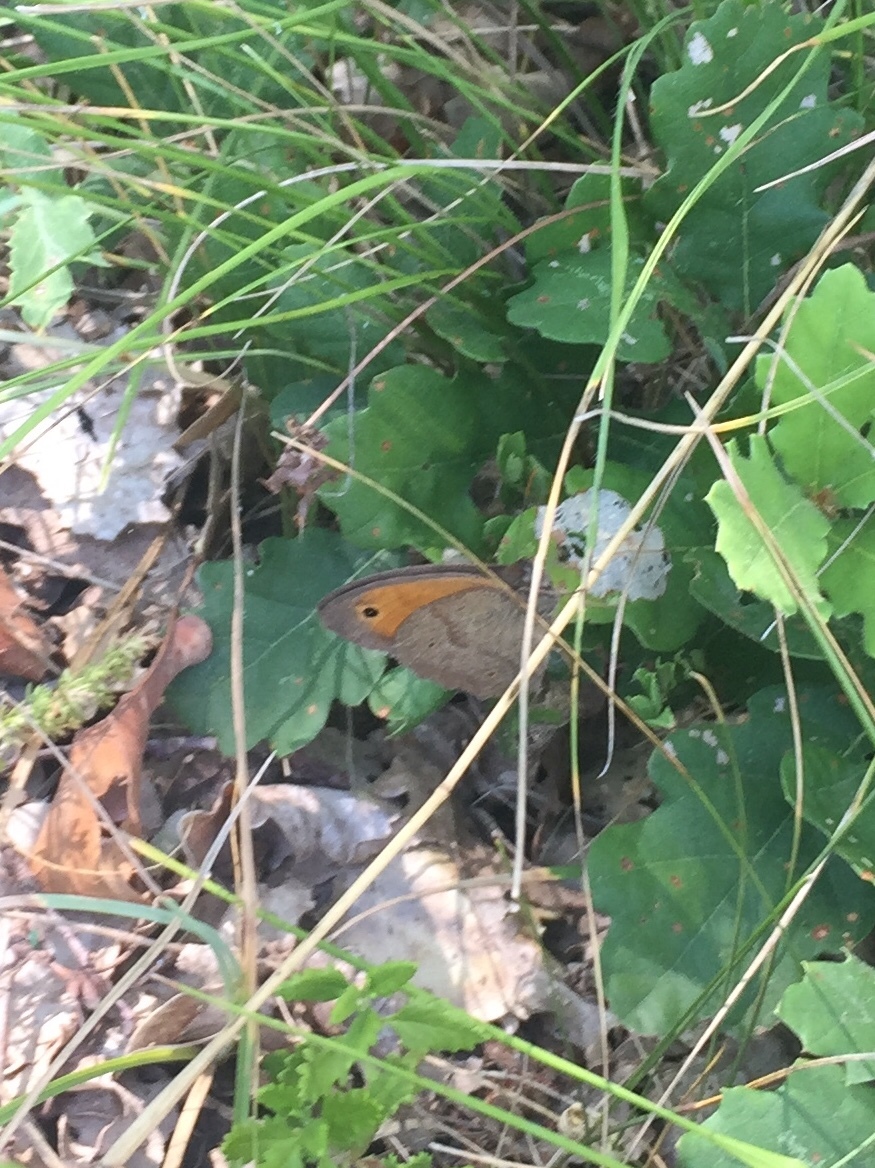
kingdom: Animalia
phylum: Arthropoda
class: Insecta
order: Lepidoptera
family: Nymphalidae
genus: Maniola
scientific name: Maniola jurtina
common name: Meadow brown
